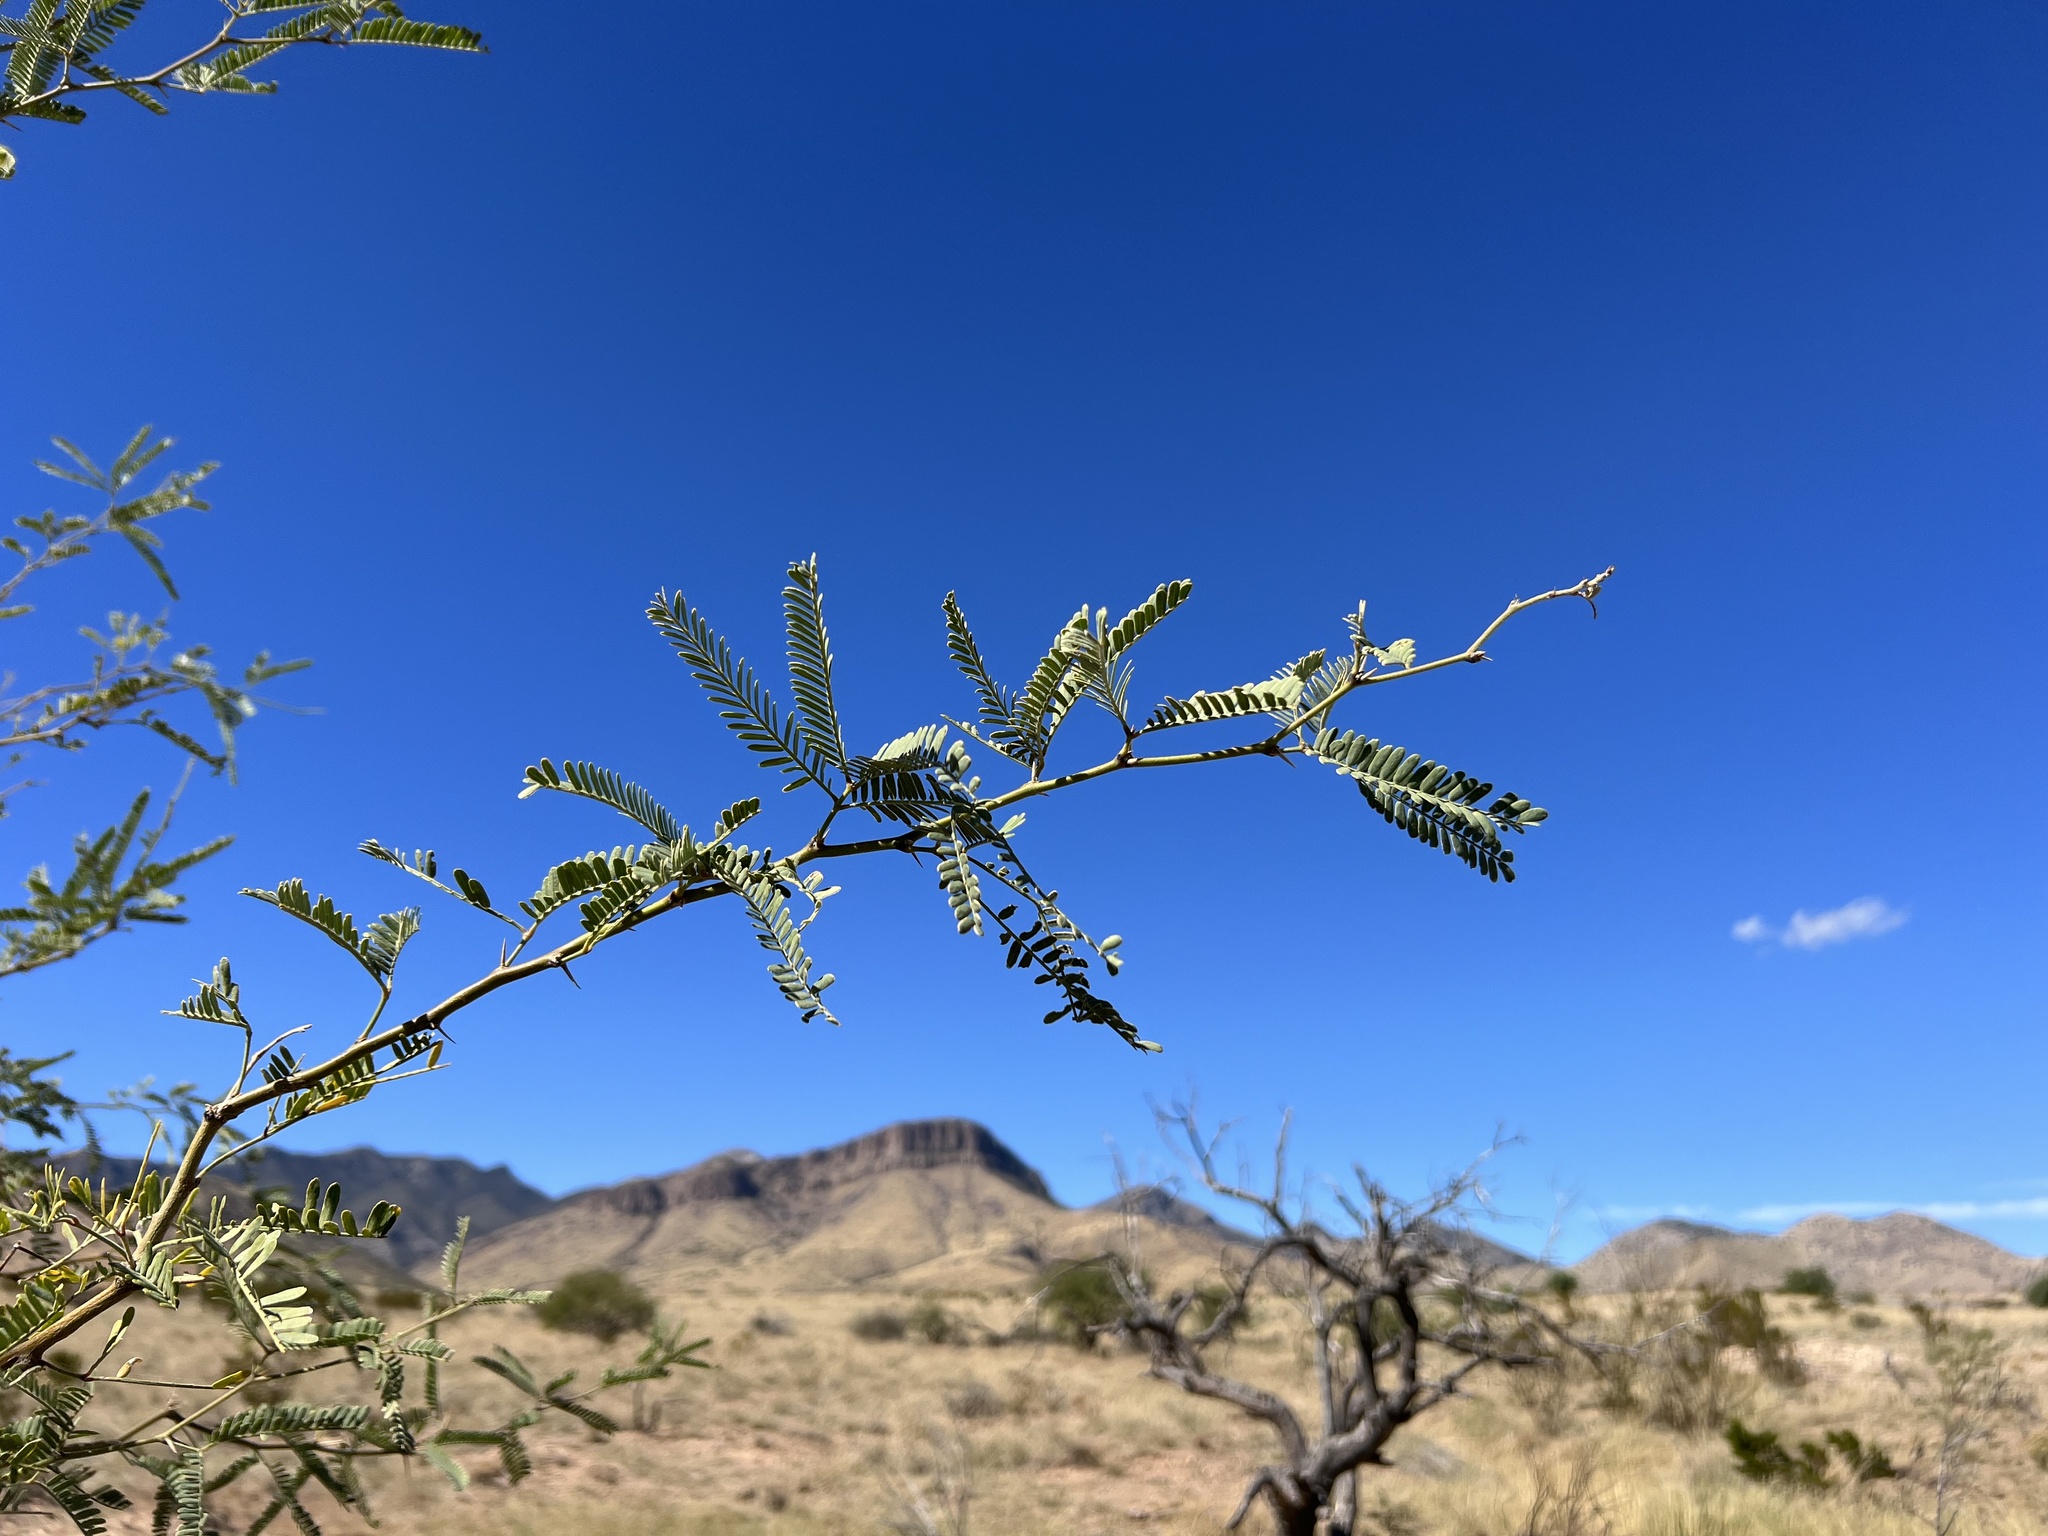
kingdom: Plantae
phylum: Tracheophyta
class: Magnoliopsida
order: Fabales
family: Fabaceae
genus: Prosopis
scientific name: Prosopis velutina
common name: Velvet mesquite
